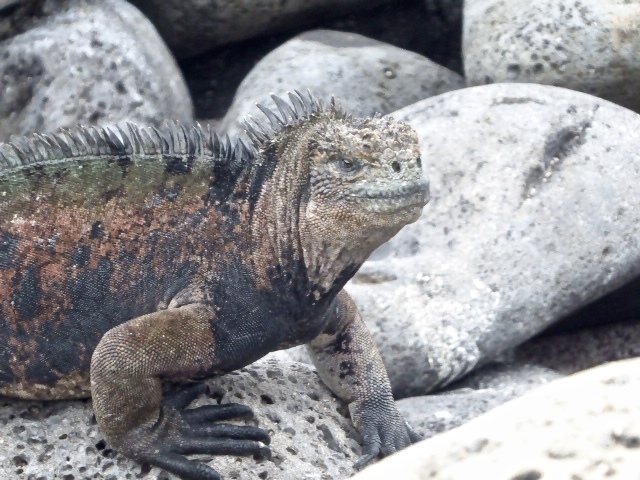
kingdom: Animalia
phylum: Chordata
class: Squamata
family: Iguanidae
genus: Amblyrhynchus
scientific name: Amblyrhynchus cristatus
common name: Marine iguana
